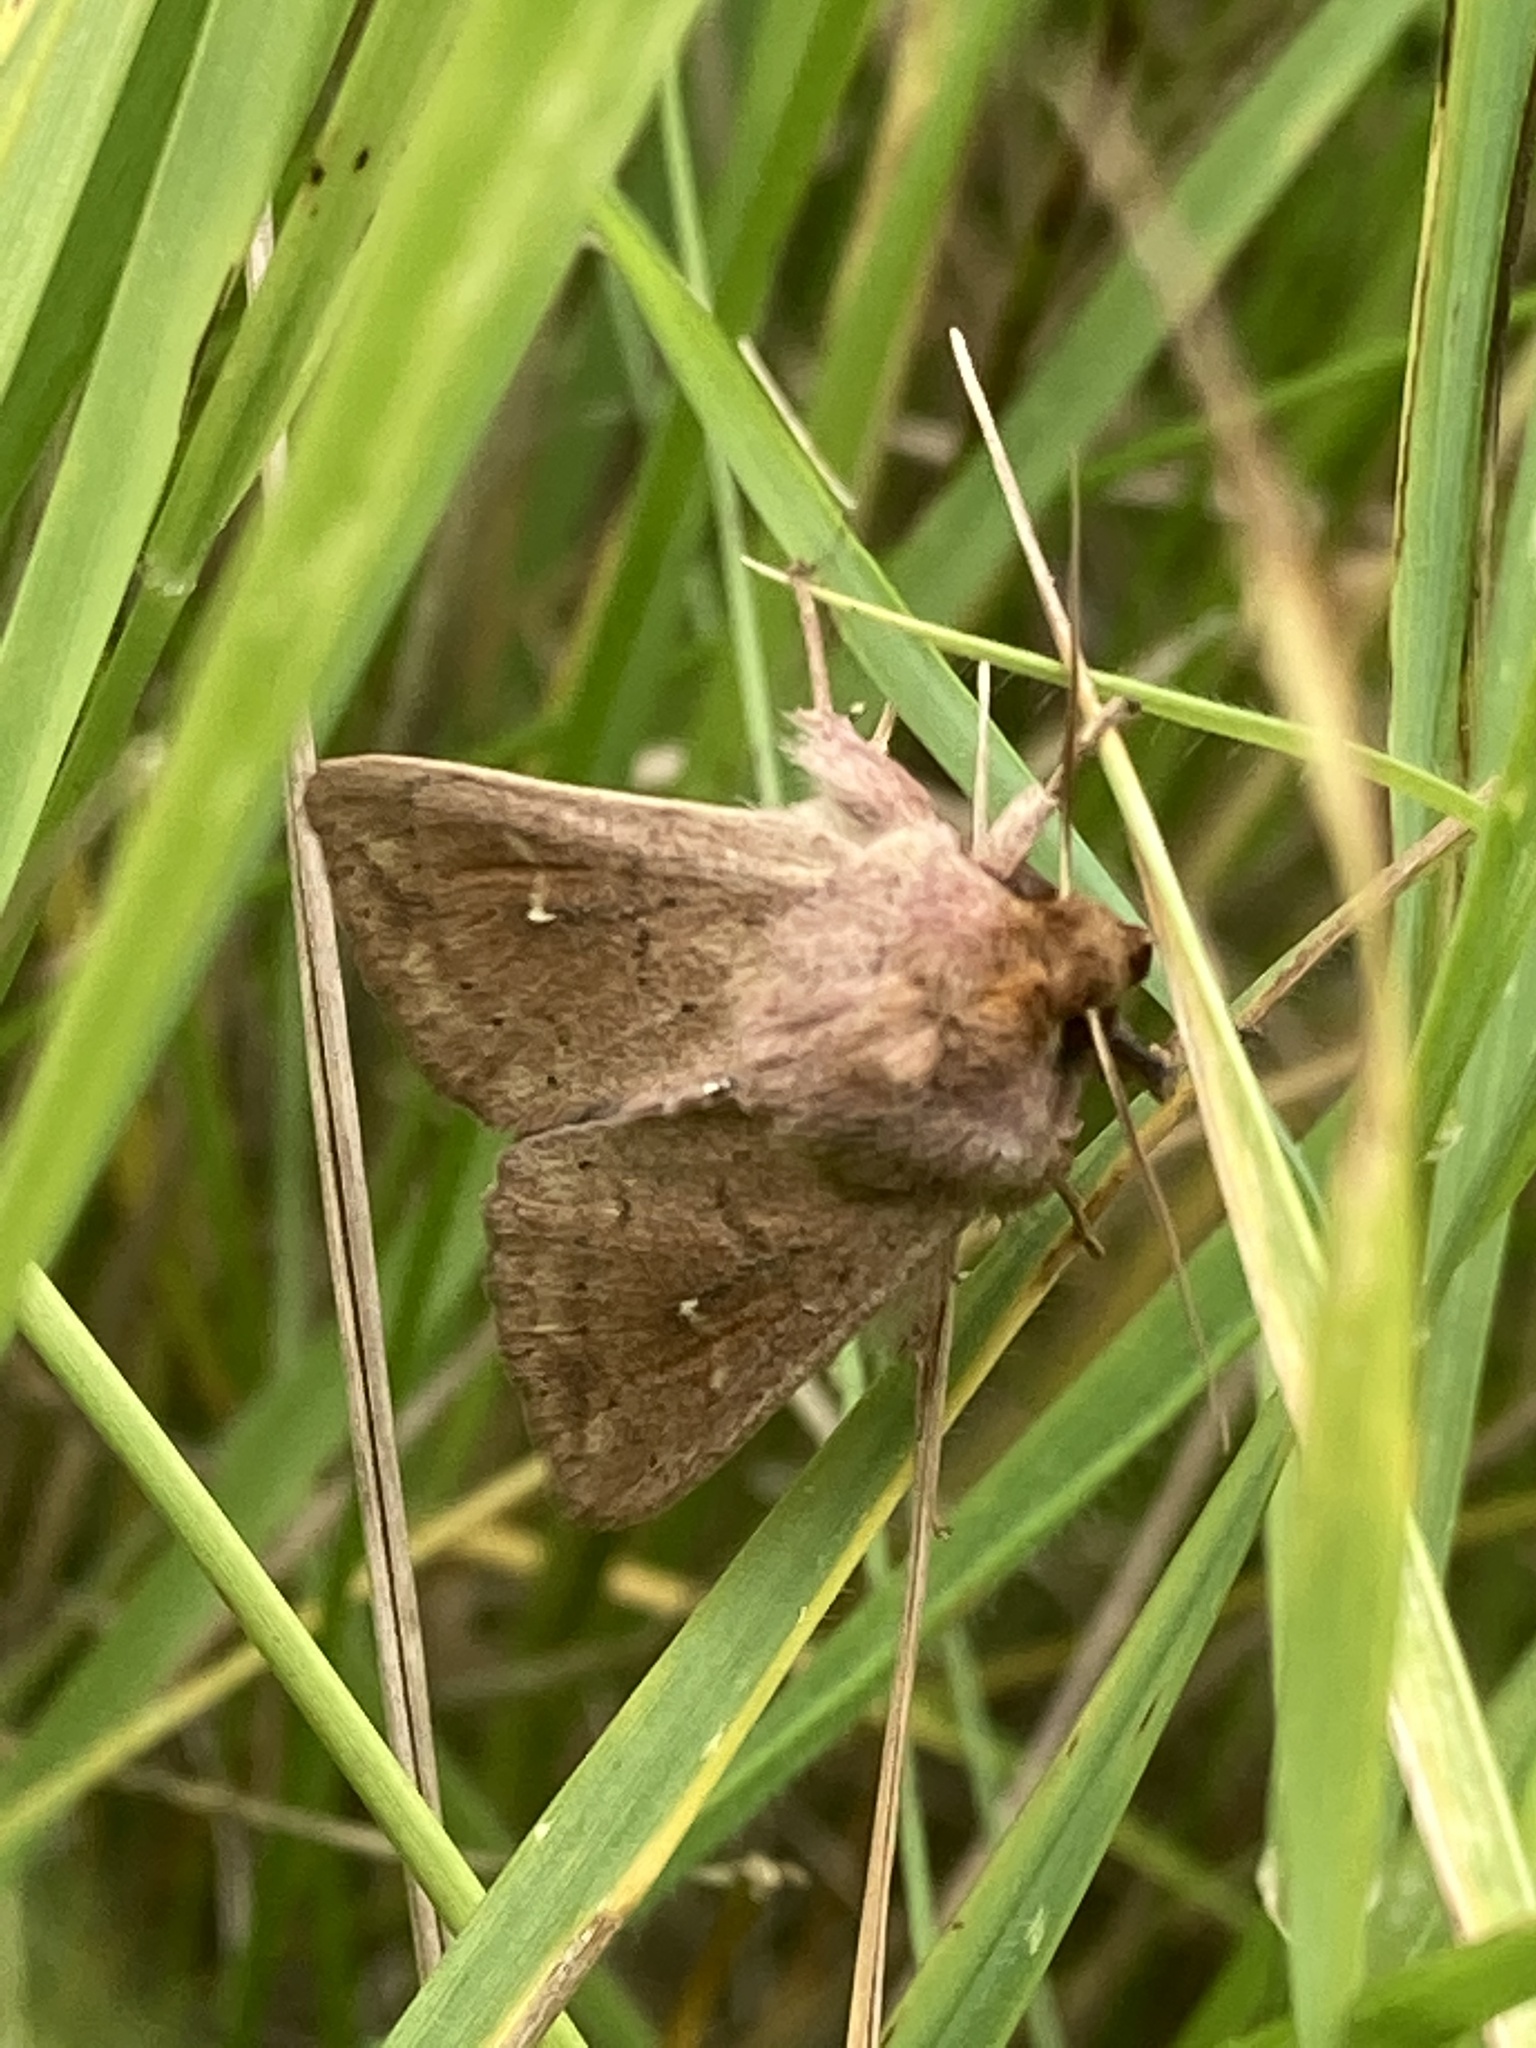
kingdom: Animalia
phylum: Arthropoda
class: Insecta
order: Lepidoptera
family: Noctuidae
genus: Mythimna
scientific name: Mythimna ferrago
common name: Clay
